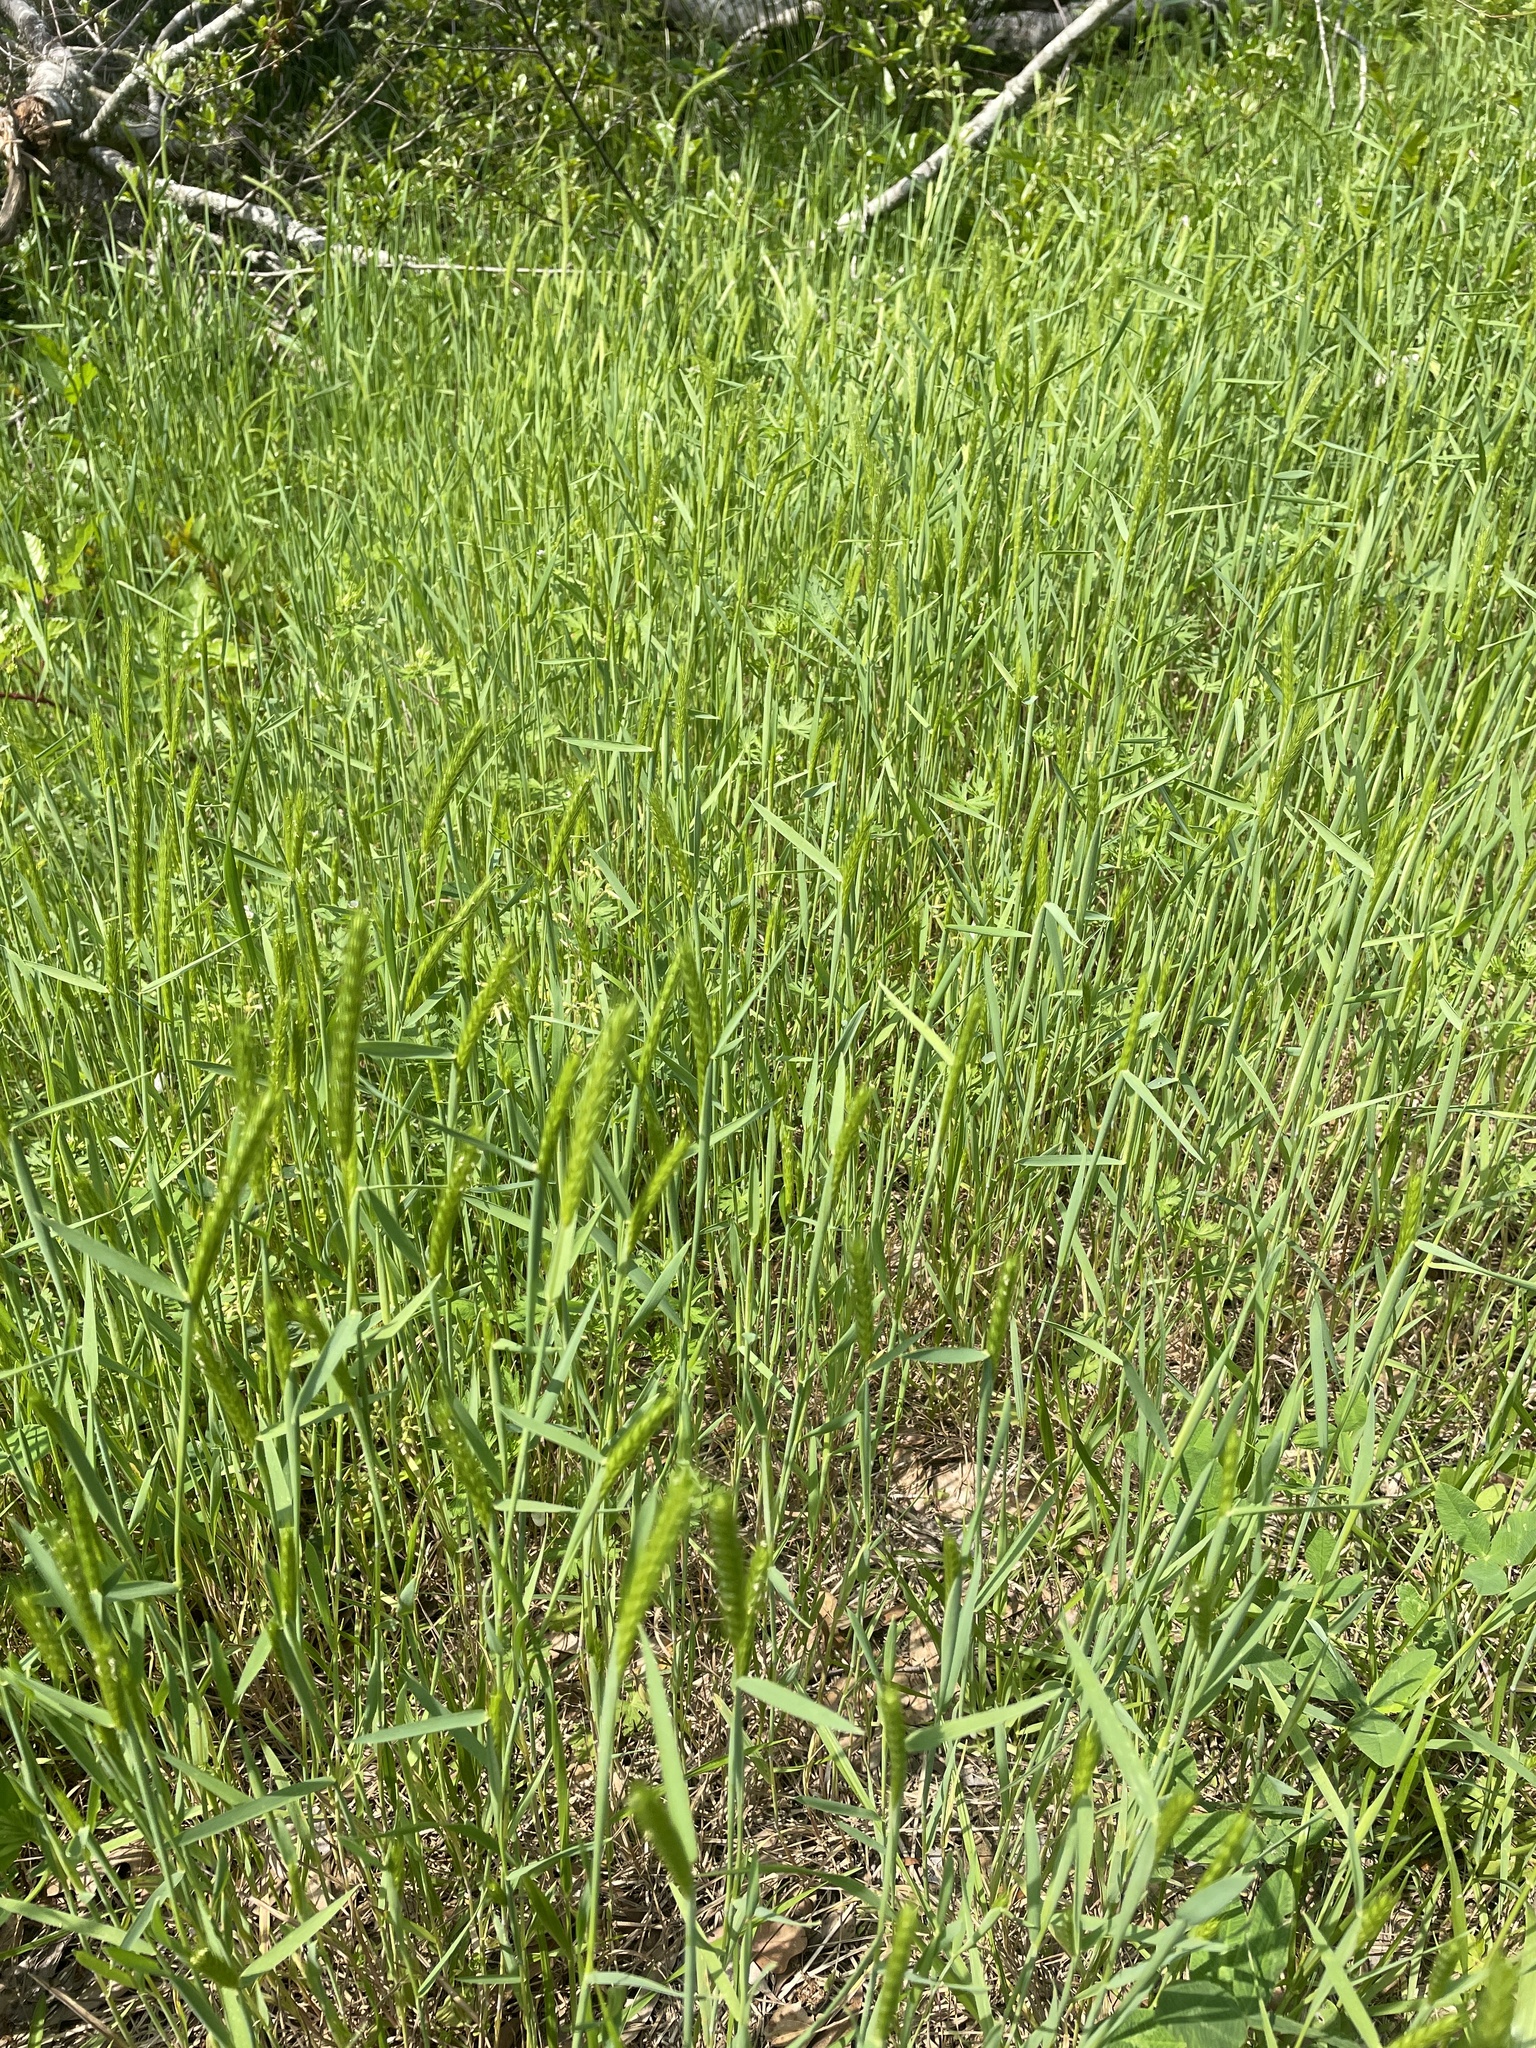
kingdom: Plantae
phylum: Tracheophyta
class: Liliopsida
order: Poales
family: Poaceae
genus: Hordeum
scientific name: Hordeum pusillum
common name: Little barley
